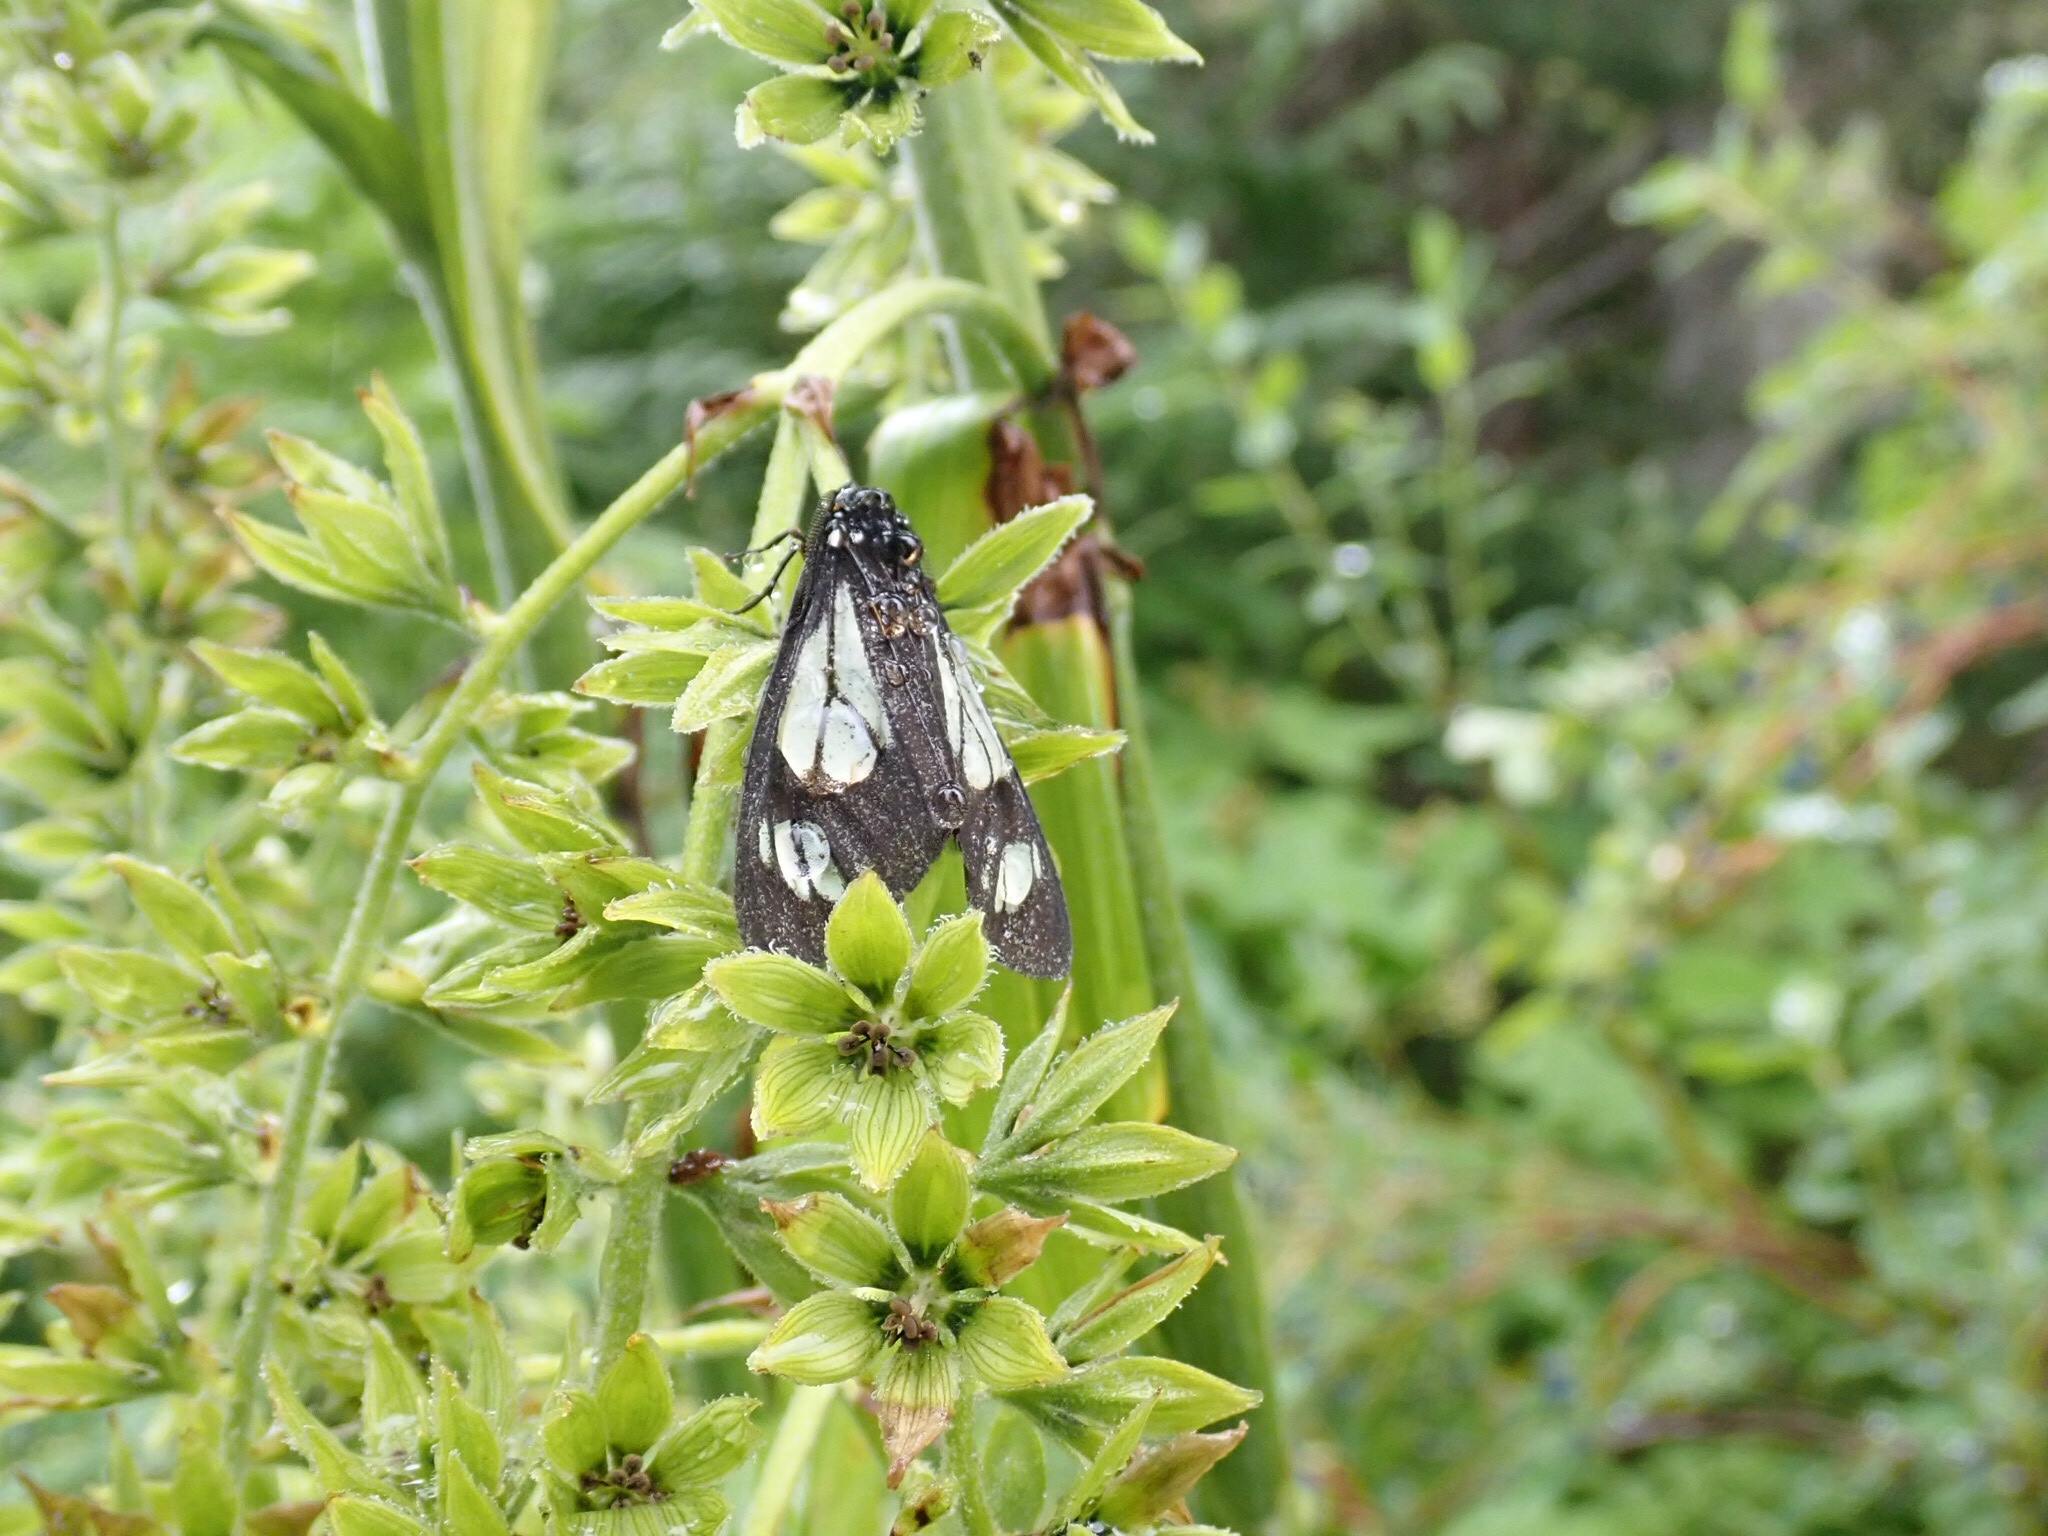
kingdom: Animalia
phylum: Arthropoda
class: Insecta
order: Lepidoptera
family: Erebidae
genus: Gnophaela
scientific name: Gnophaela vermiculata
